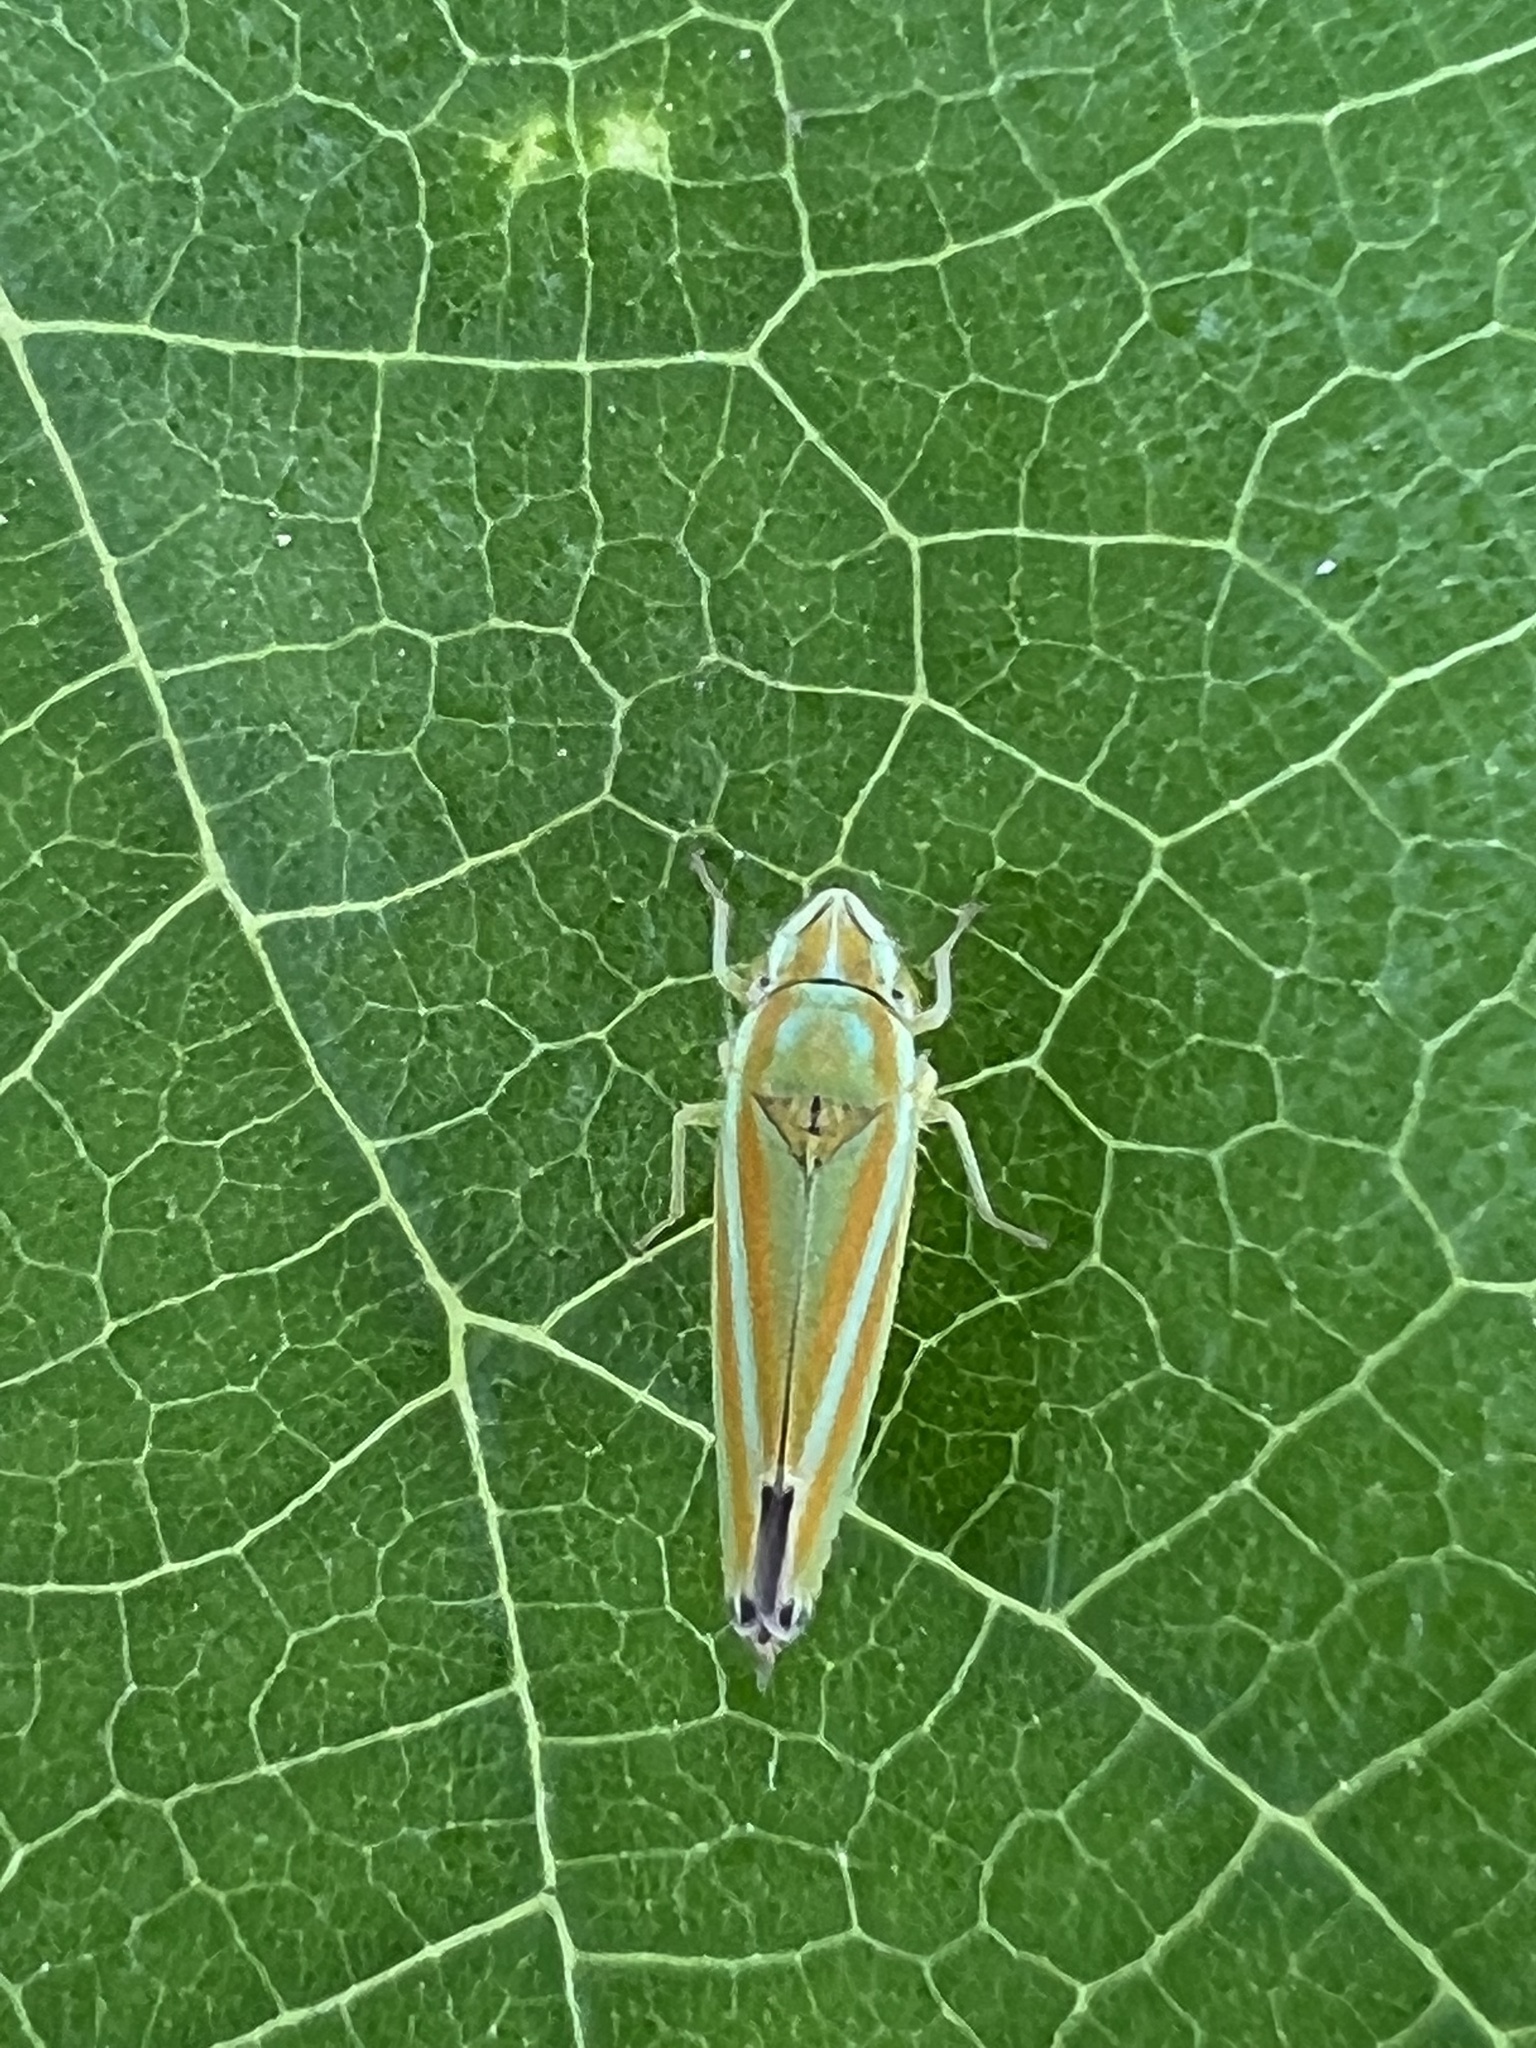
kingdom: Animalia
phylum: Arthropoda
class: Insecta
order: Hemiptera
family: Cicadellidae
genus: Graphocephala
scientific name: Graphocephala versuta
